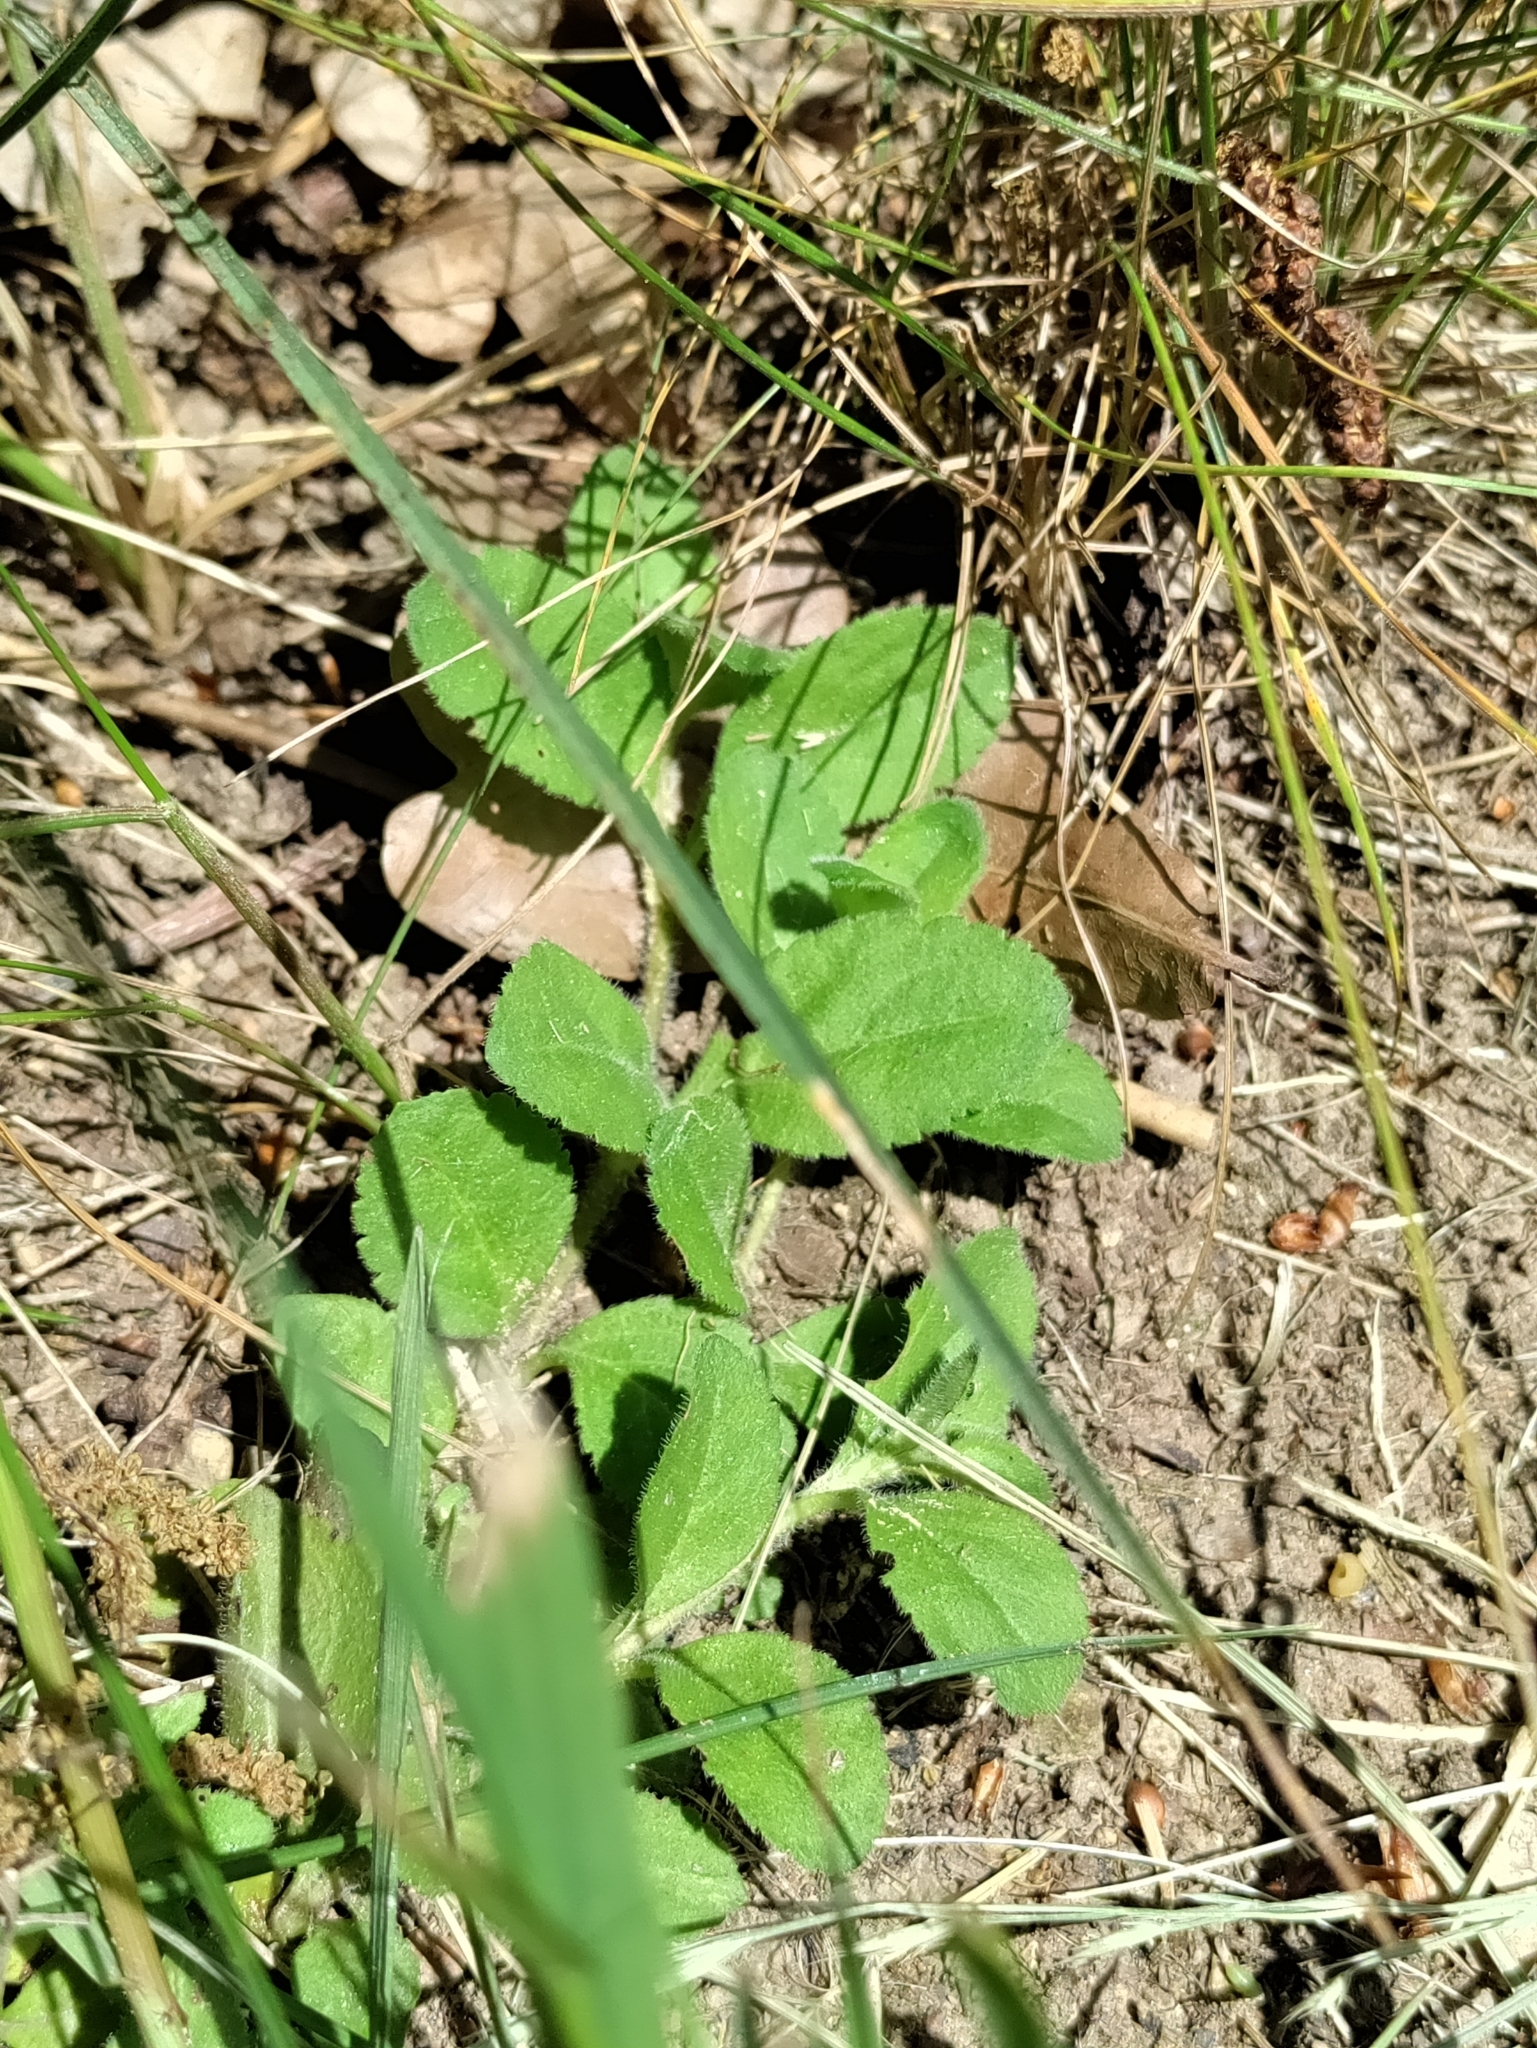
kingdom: Plantae
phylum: Tracheophyta
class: Magnoliopsida
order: Lamiales
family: Plantaginaceae
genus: Veronica
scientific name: Veronica officinalis
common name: Common speedwell
